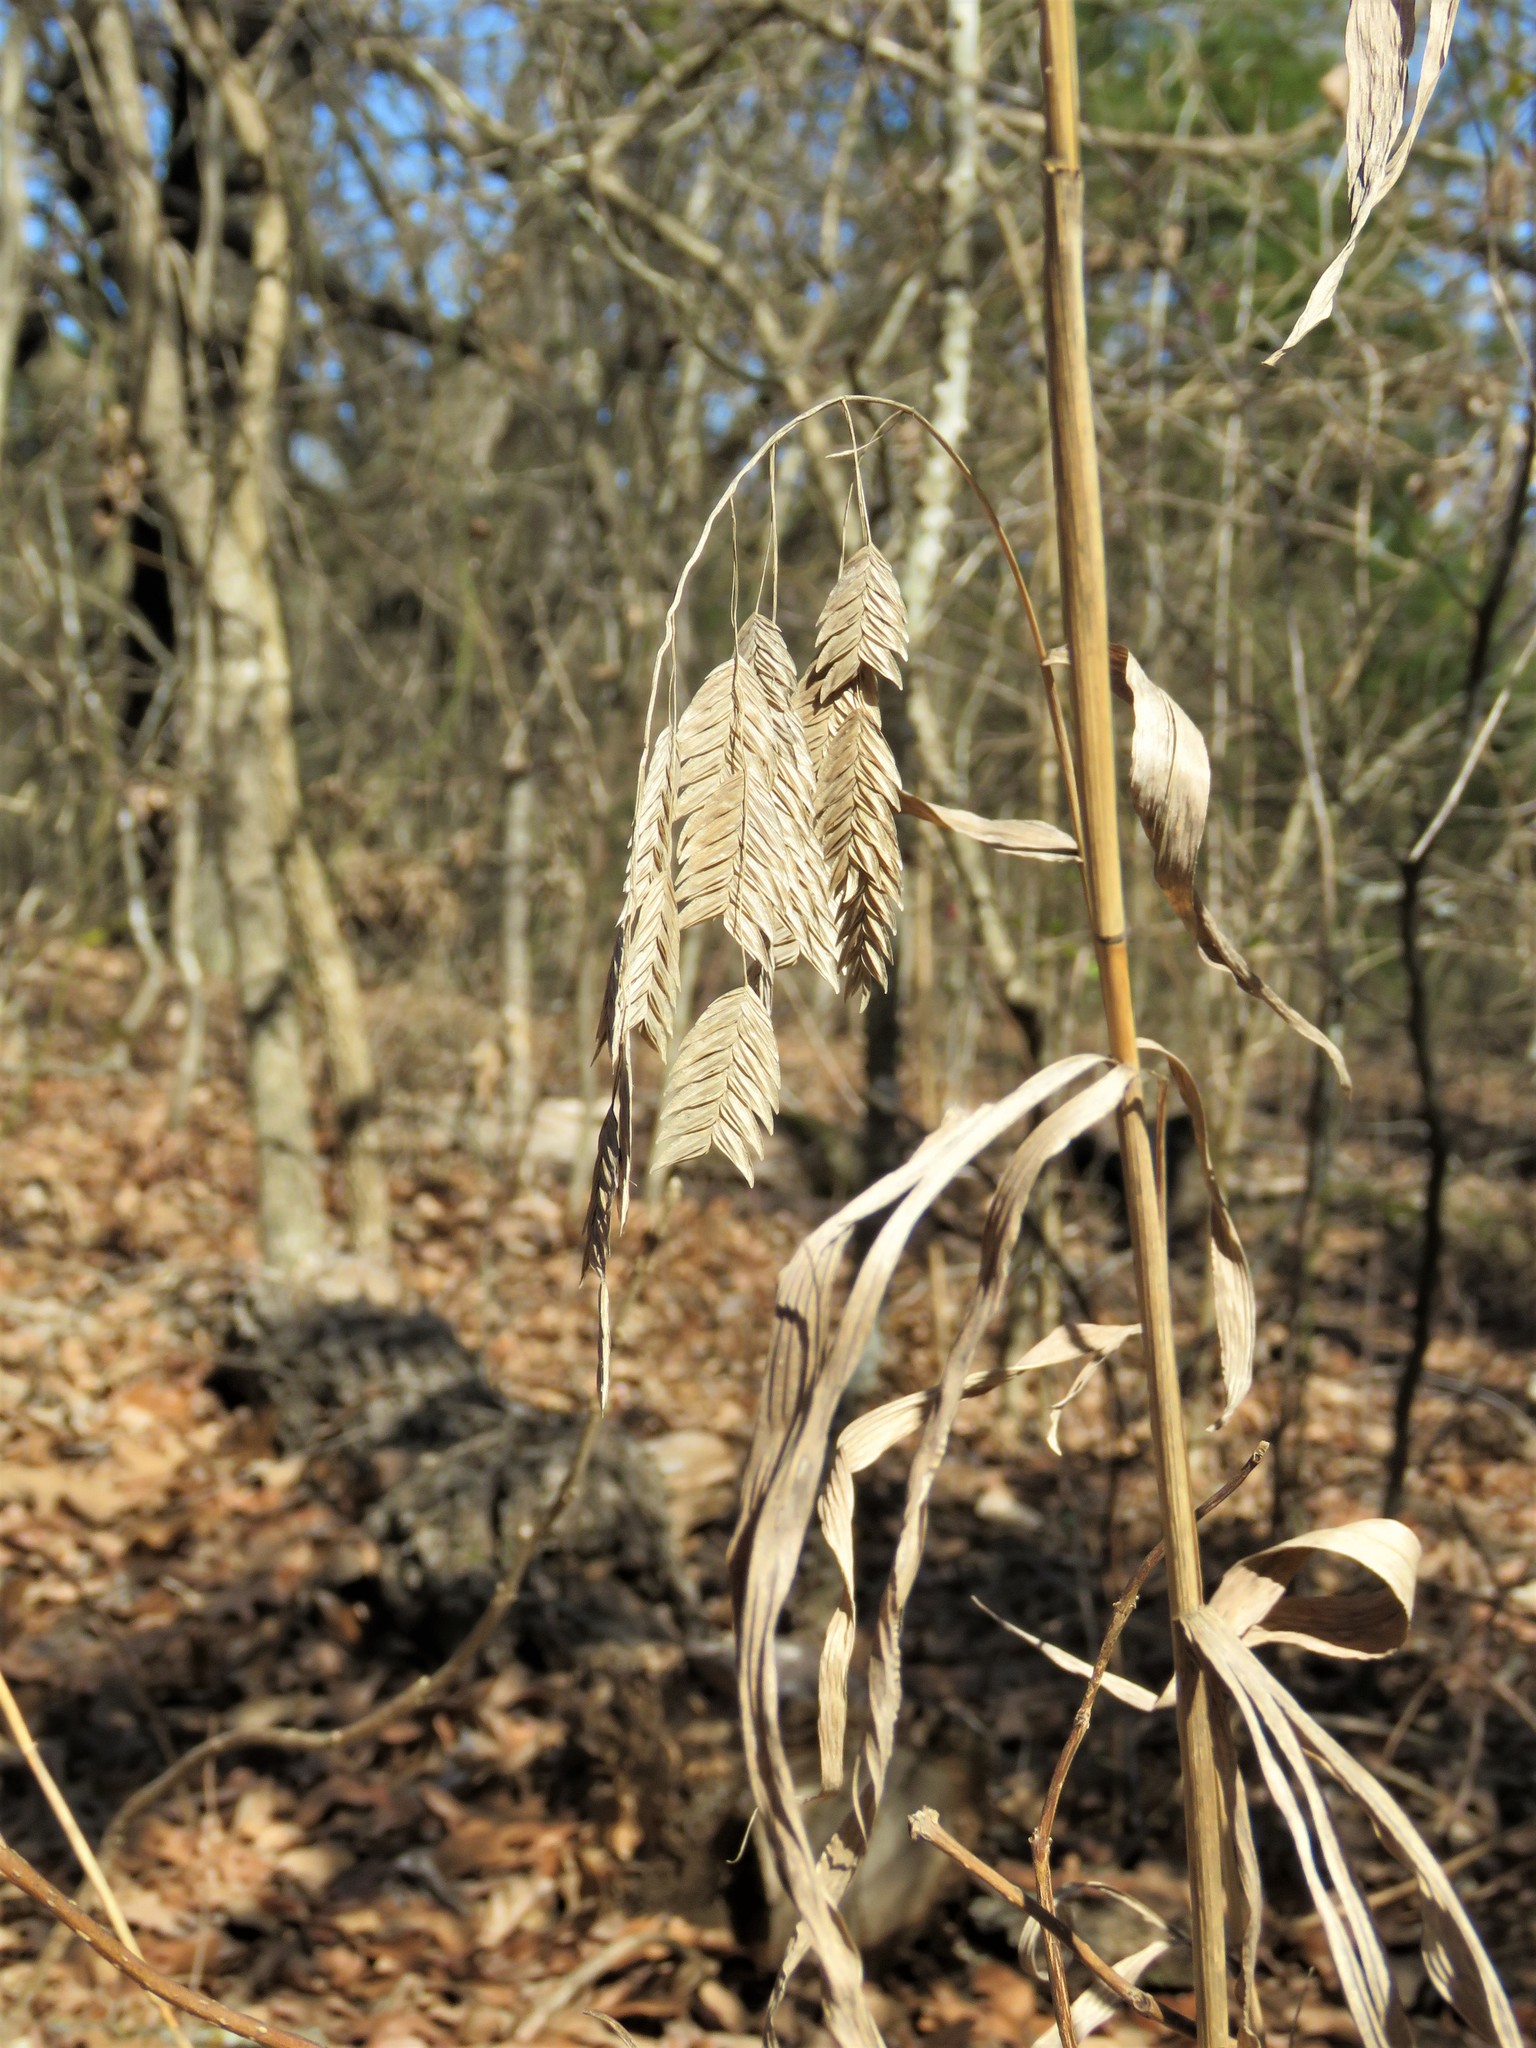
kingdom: Plantae
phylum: Tracheophyta
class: Liliopsida
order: Poales
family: Poaceae
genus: Chasmanthium
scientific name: Chasmanthium latifolium
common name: Broad-leaved chasmanthium
